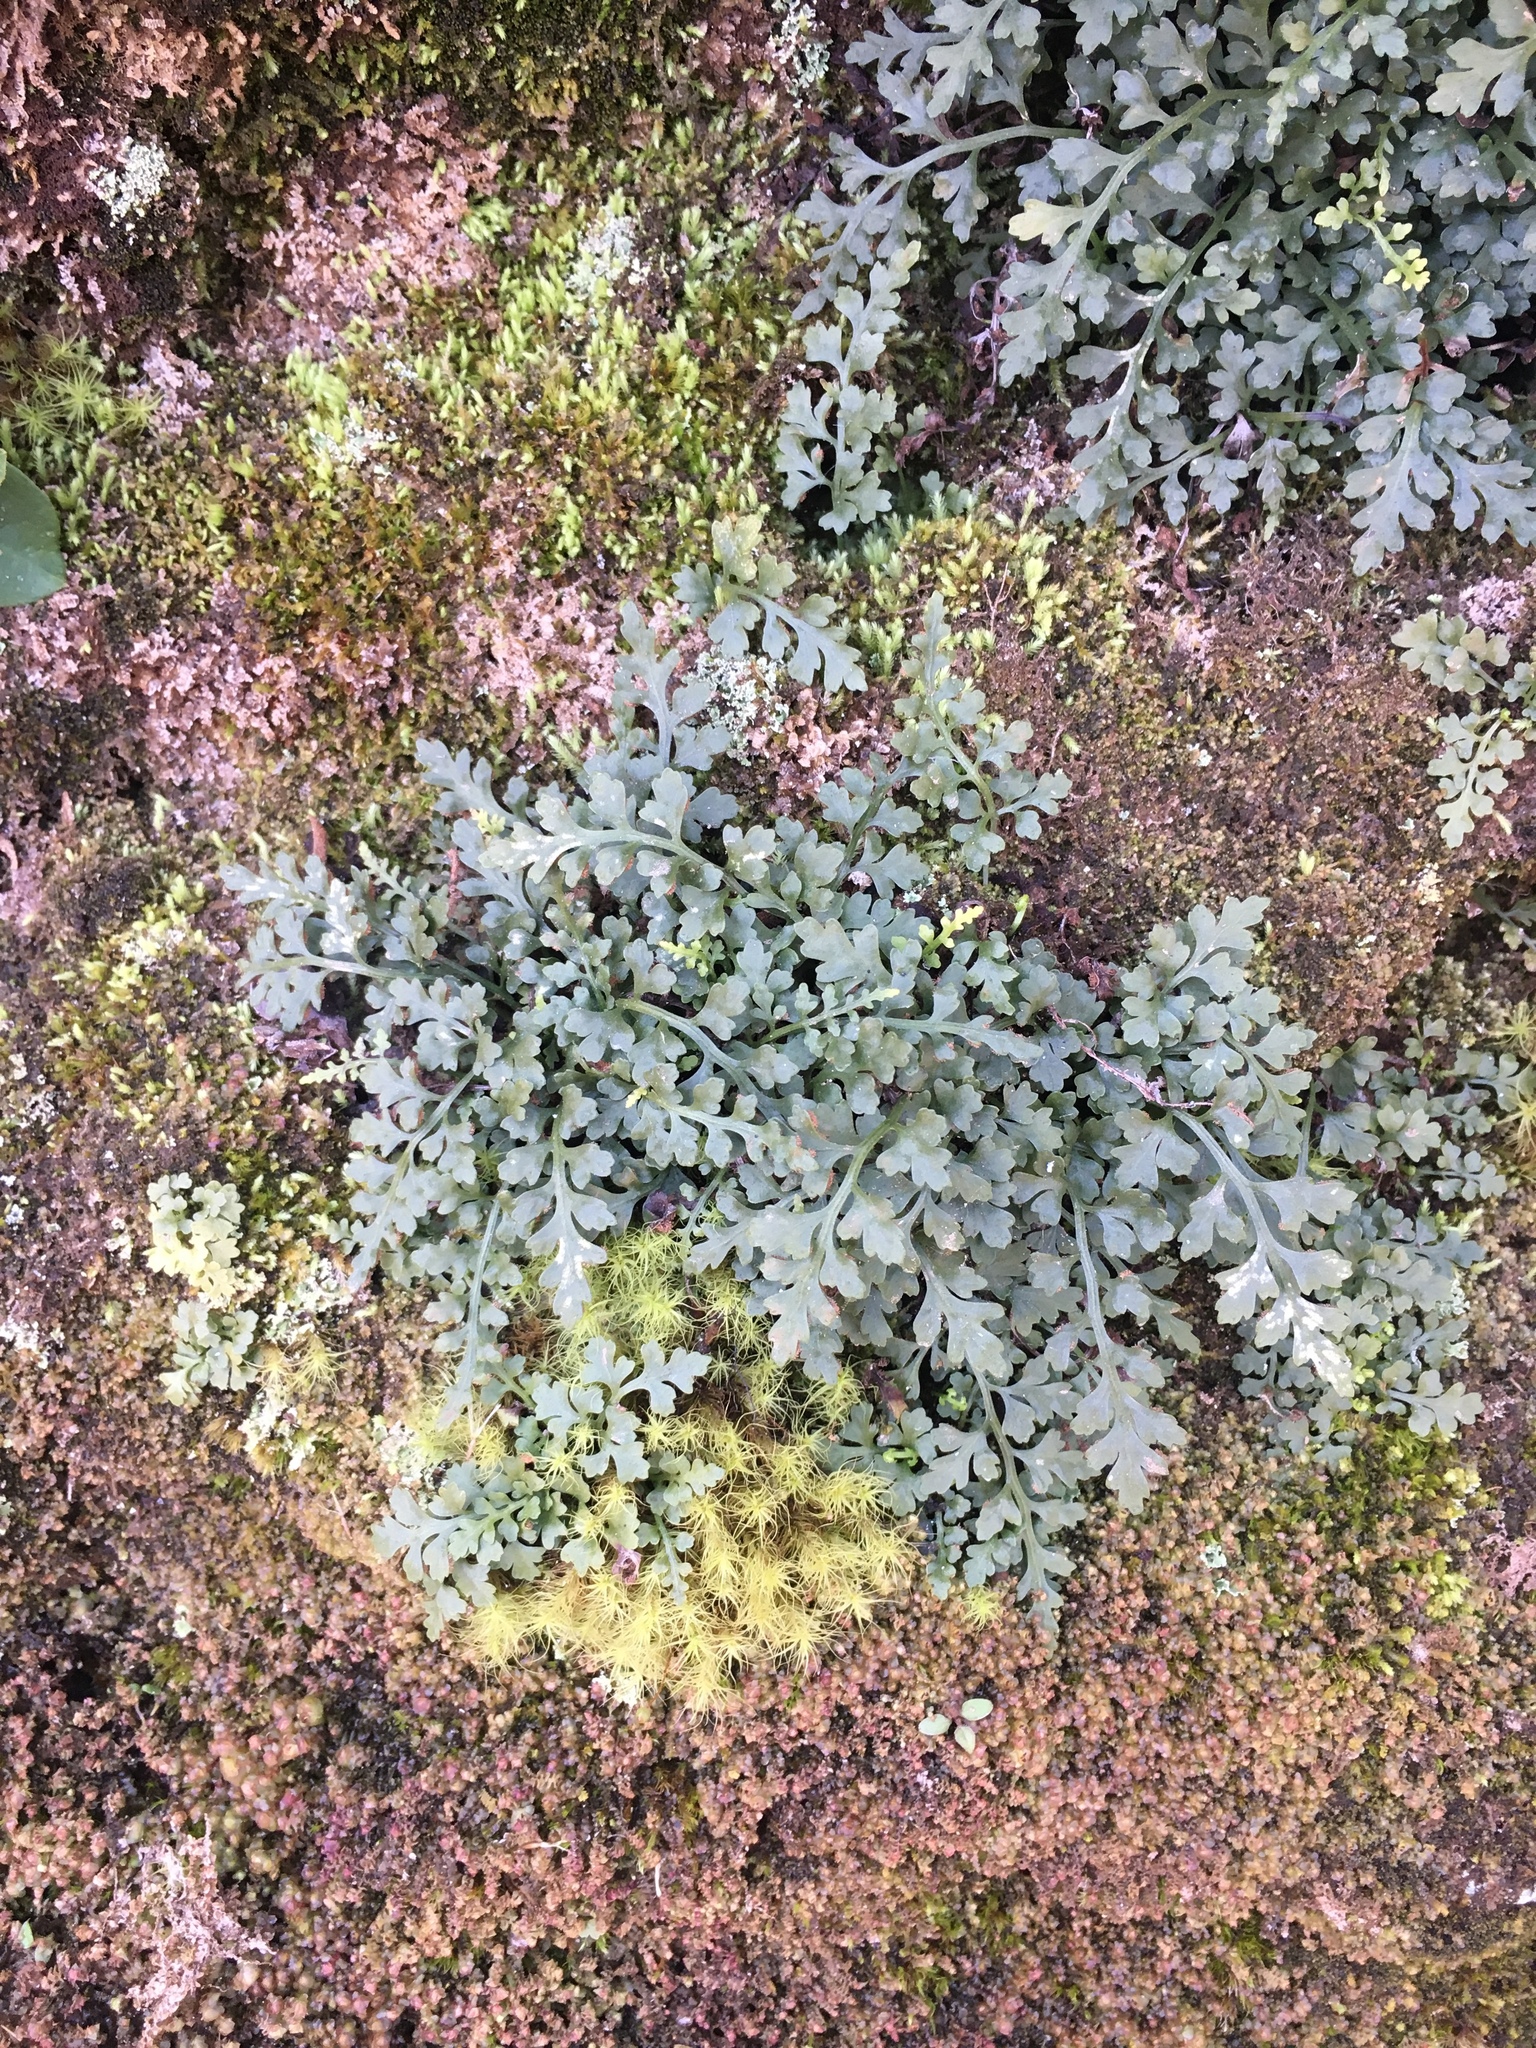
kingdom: Plantae
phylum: Tracheophyta
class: Polypodiopsida
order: Polypodiales
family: Aspleniaceae
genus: Asplenium
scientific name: Asplenium montanum
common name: Mountain spleenwort
